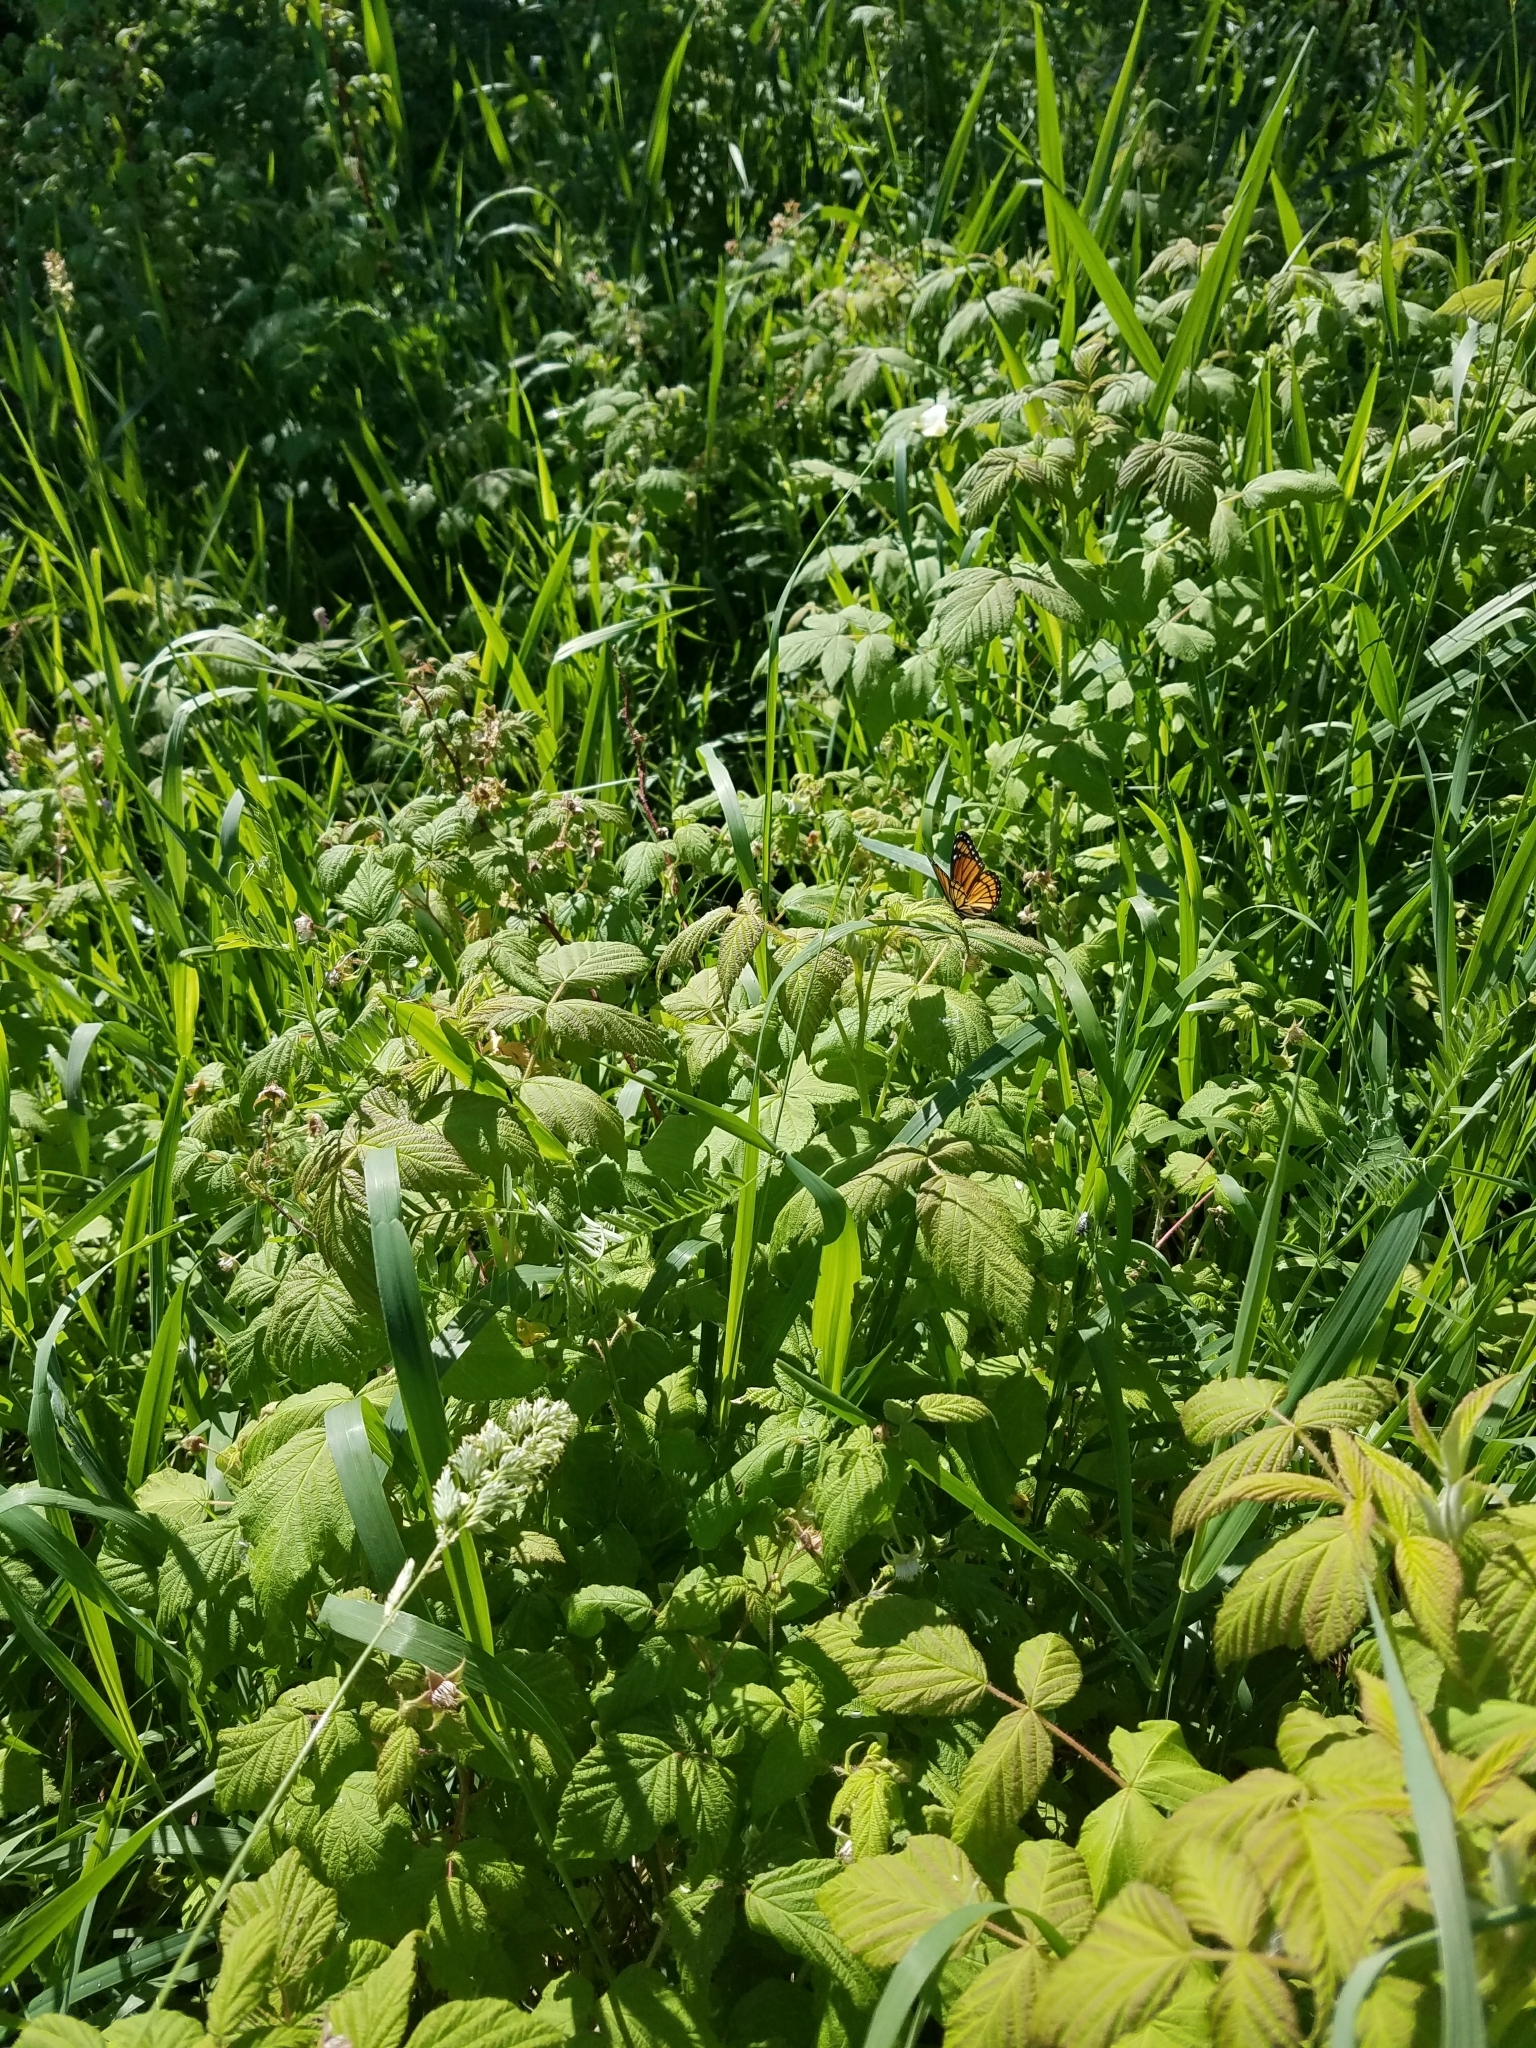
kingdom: Animalia
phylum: Arthropoda
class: Insecta
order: Lepidoptera
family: Nymphalidae
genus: Limenitis
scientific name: Limenitis archippus
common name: Viceroy
